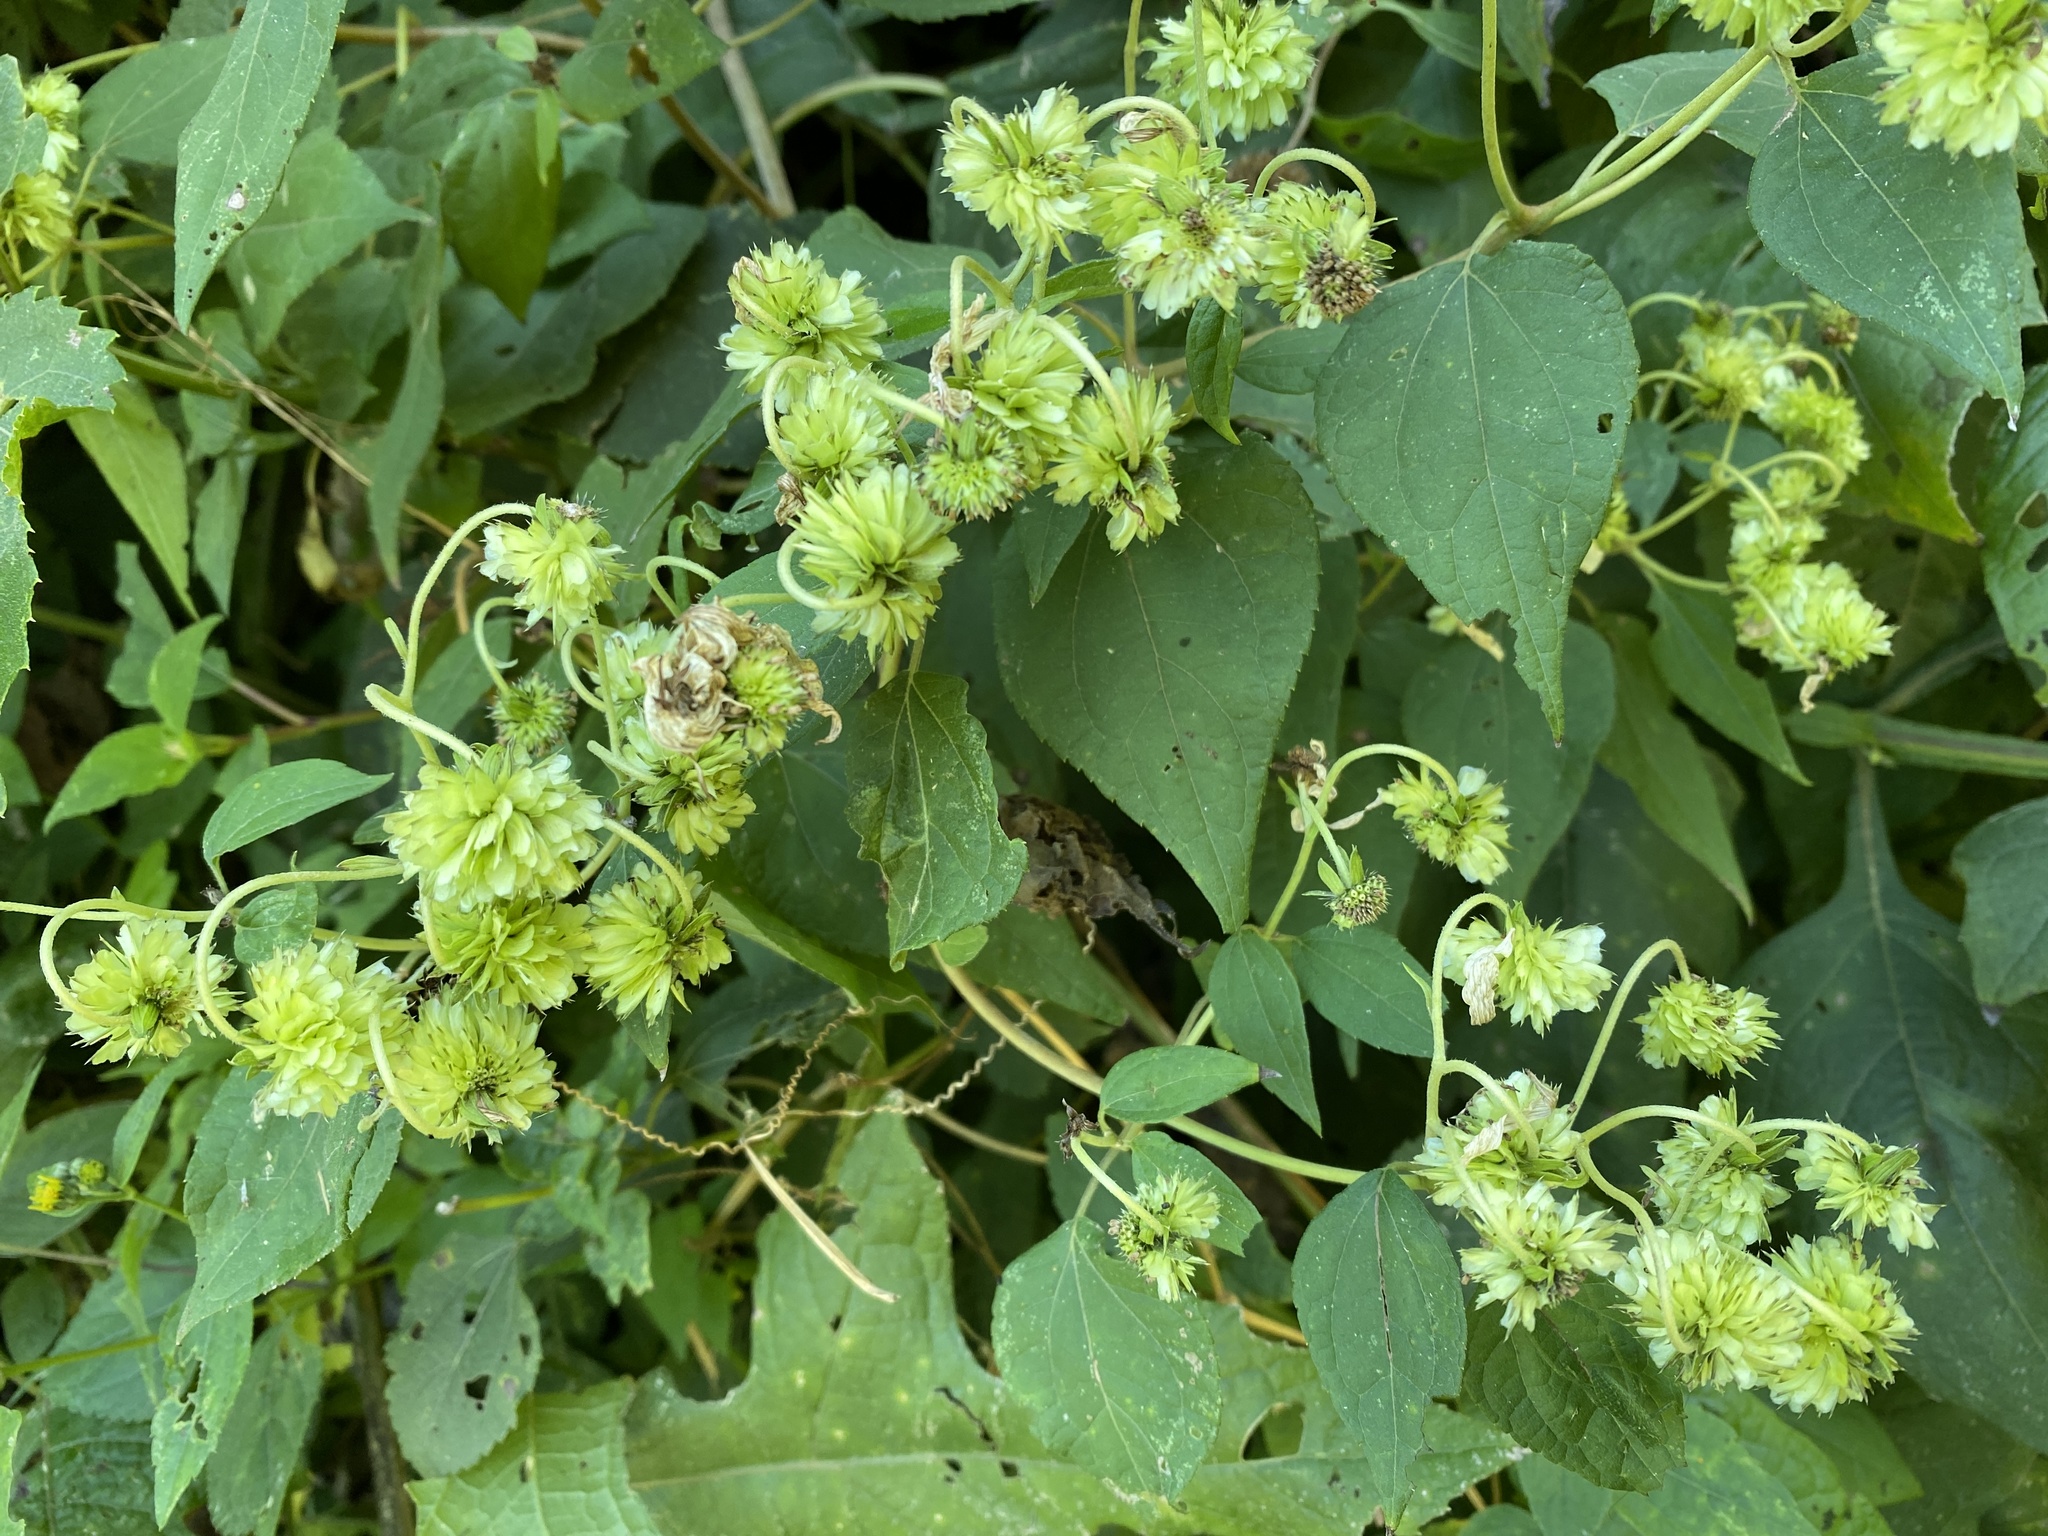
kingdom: Plantae
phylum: Tracheophyta
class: Magnoliopsida
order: Asterales
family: Asteraceae
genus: Montanoa
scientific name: Montanoa atriplicifolia
